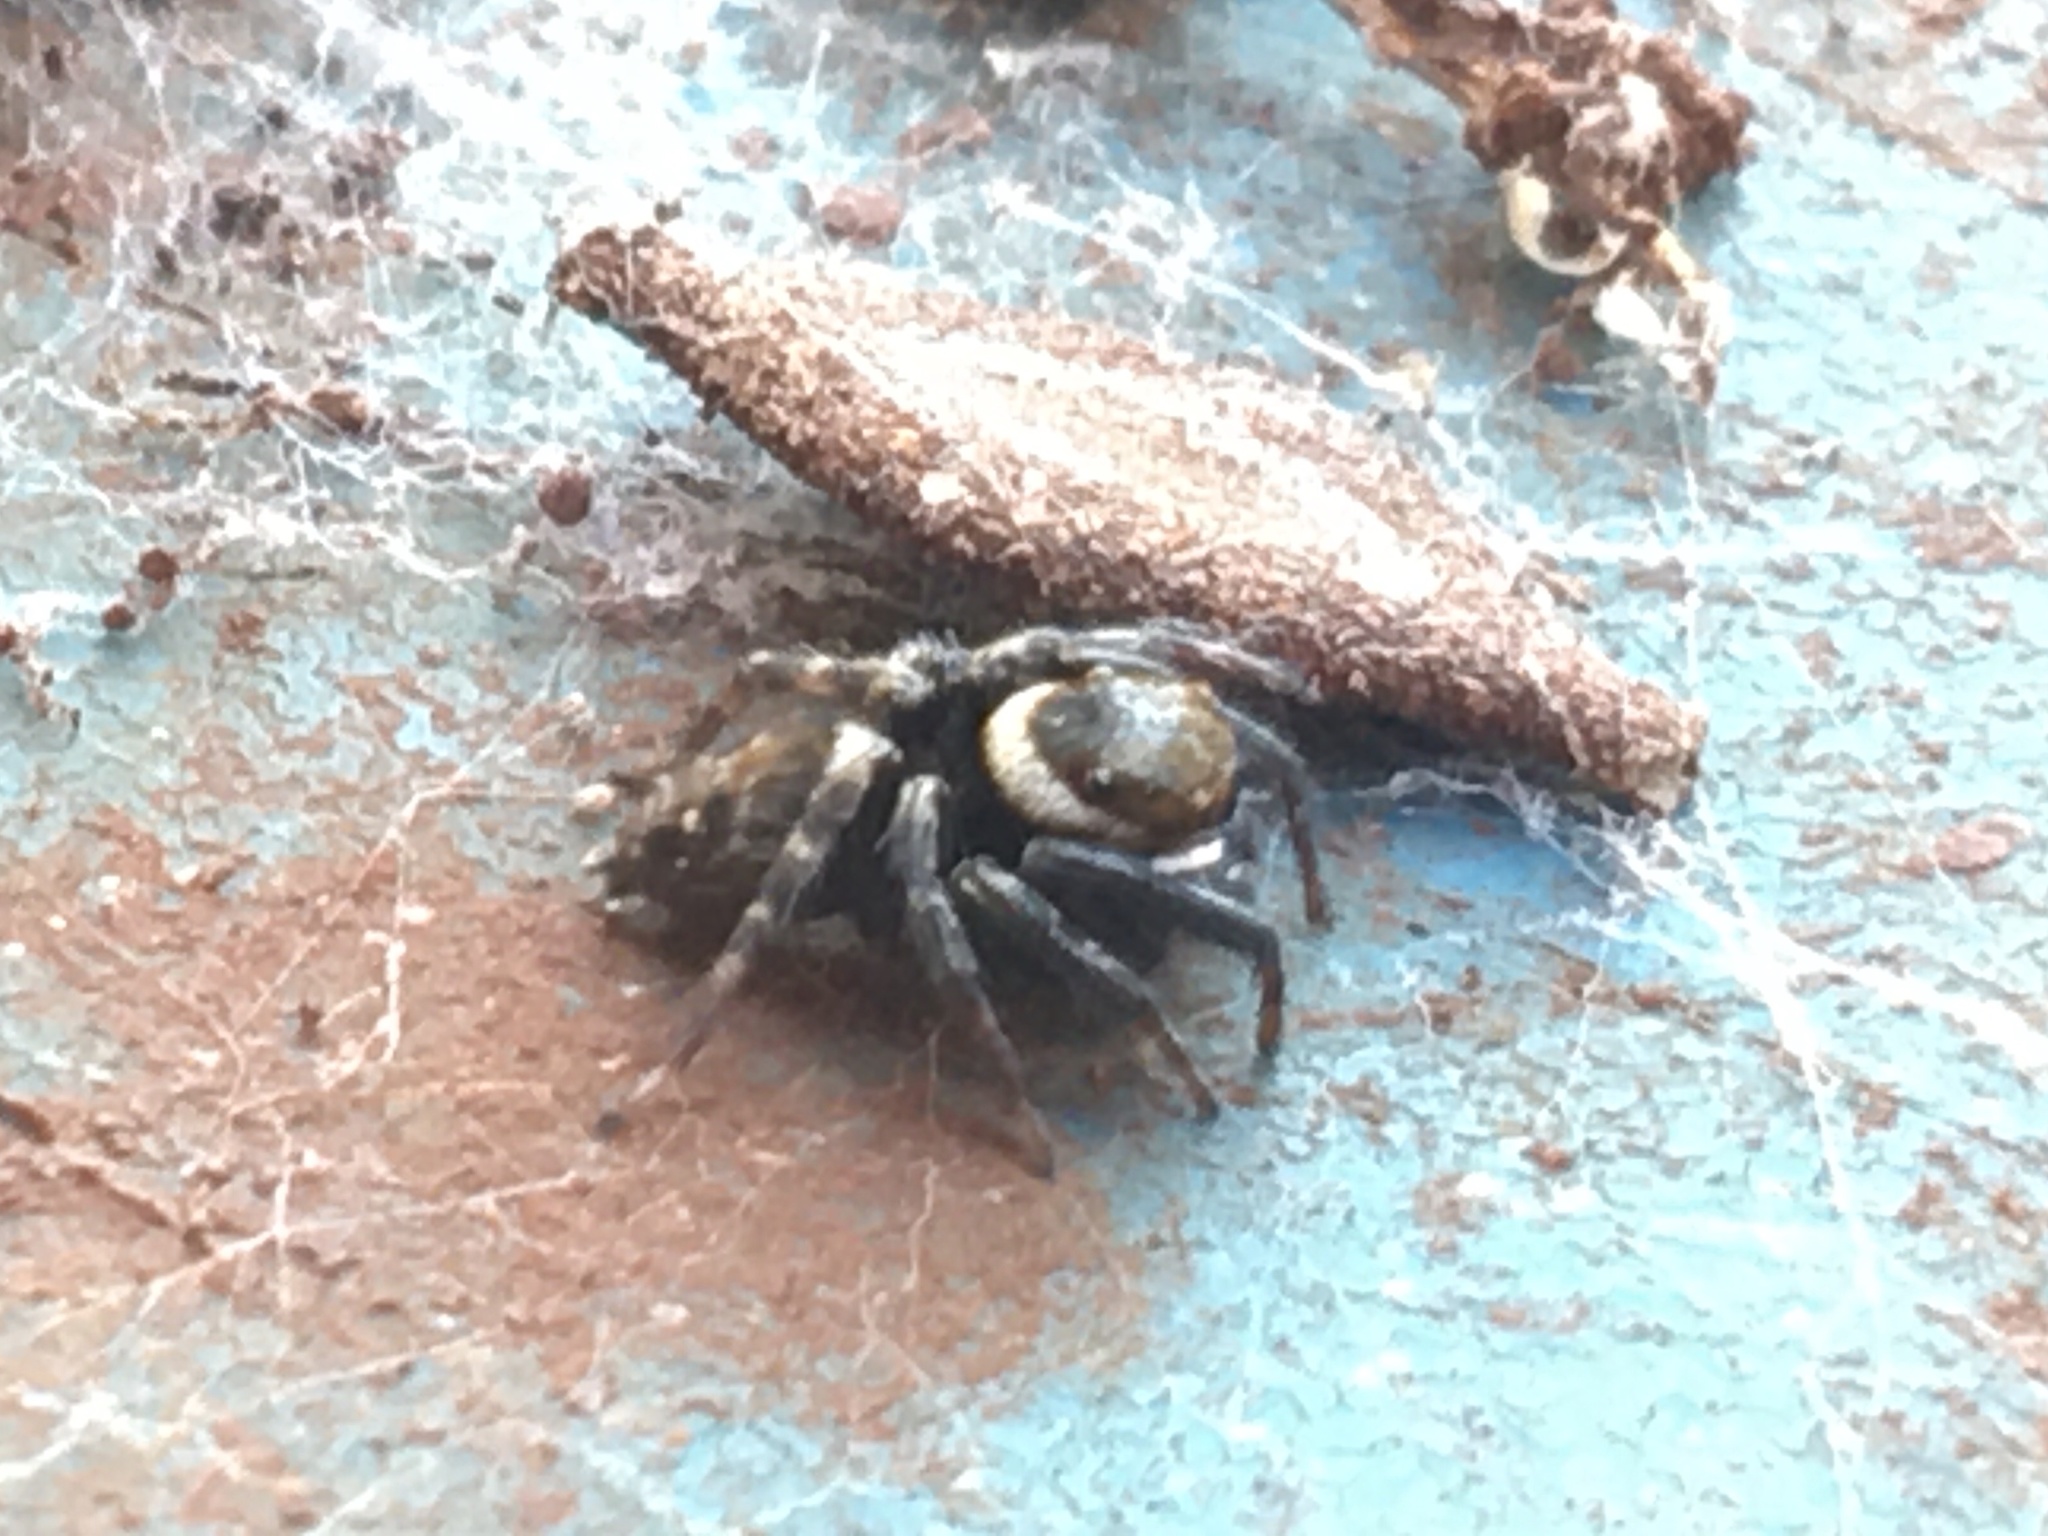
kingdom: Animalia
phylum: Arthropoda
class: Arachnida
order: Araneae
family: Salticidae
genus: Hasarius
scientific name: Hasarius adansoni
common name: Jumping spider
